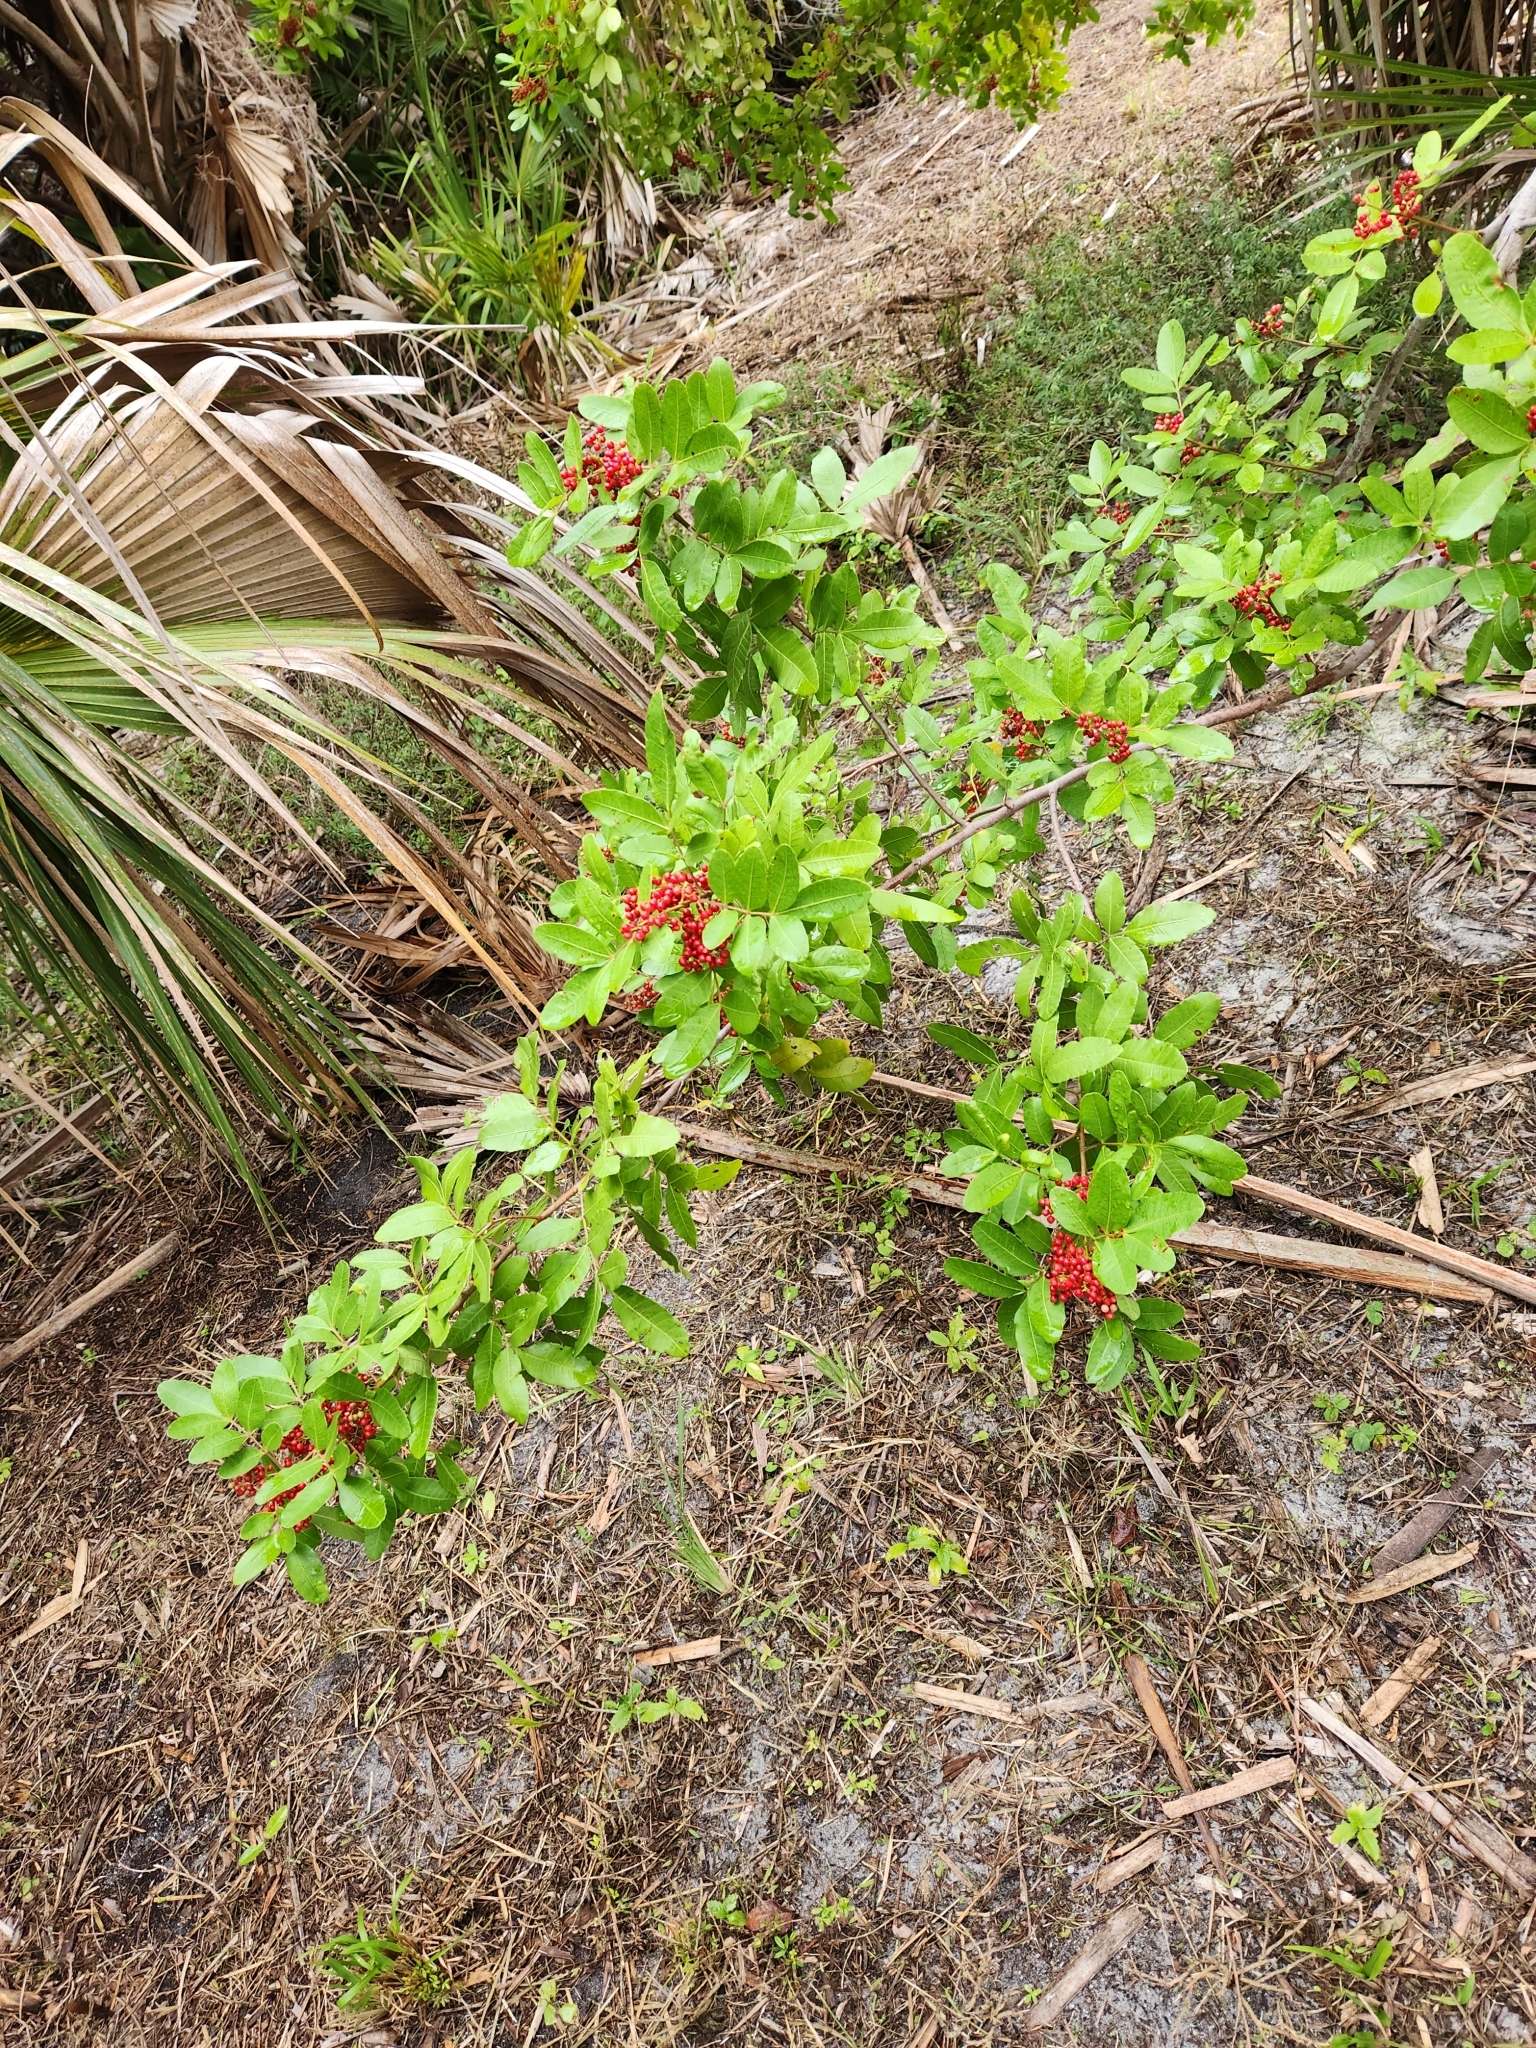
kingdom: Plantae
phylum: Tracheophyta
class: Magnoliopsida
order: Sapindales
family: Anacardiaceae
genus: Schinus
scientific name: Schinus terebinthifolia
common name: Brazilian peppertree
